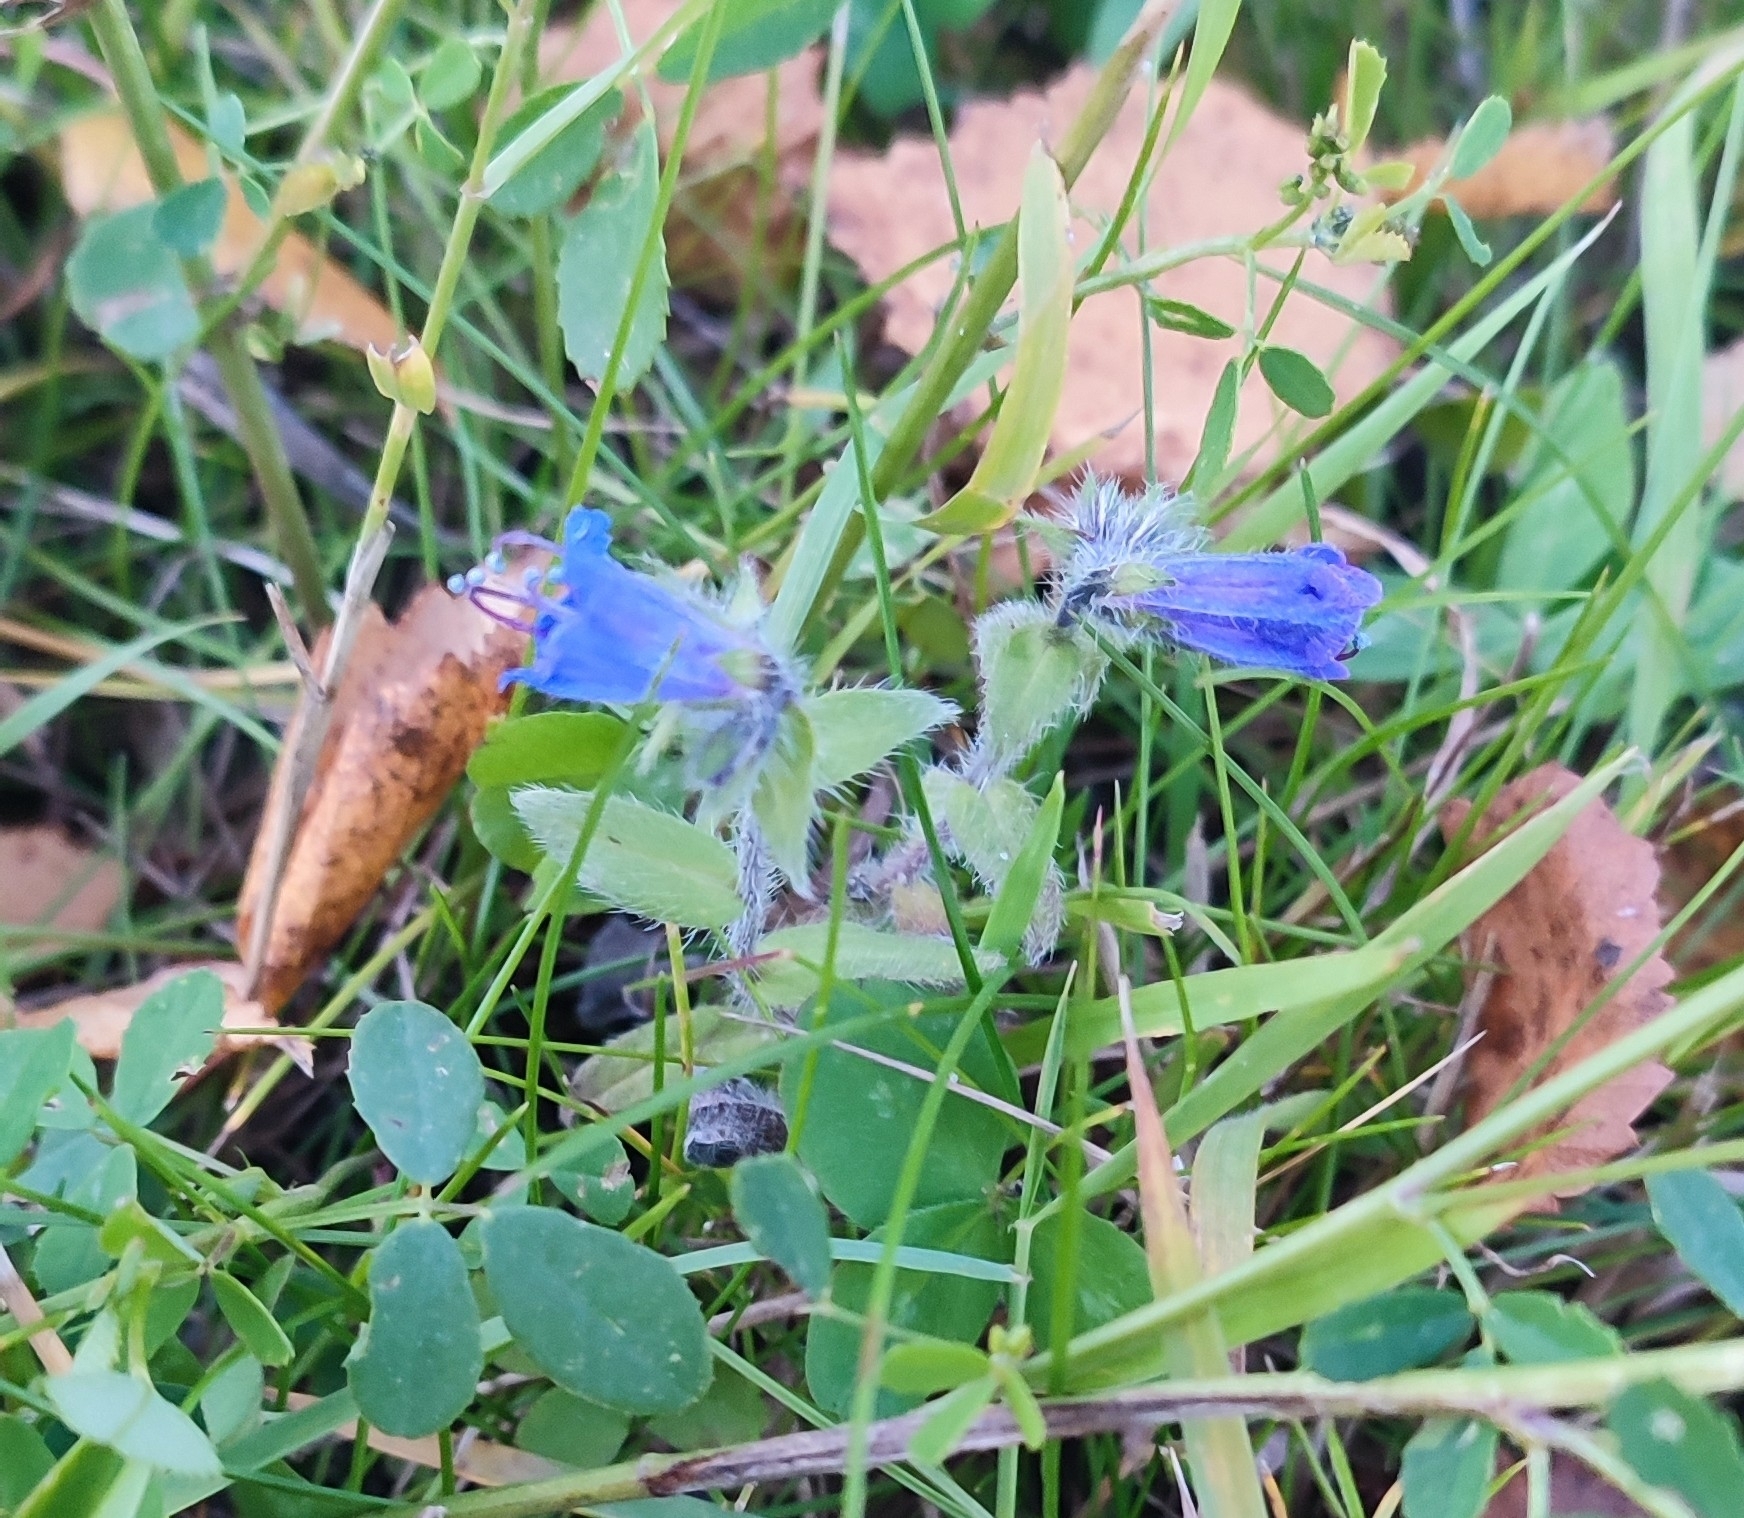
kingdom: Plantae
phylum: Tracheophyta
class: Magnoliopsida
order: Boraginales
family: Boraginaceae
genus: Echium
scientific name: Echium vulgare
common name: Common viper's bugloss
